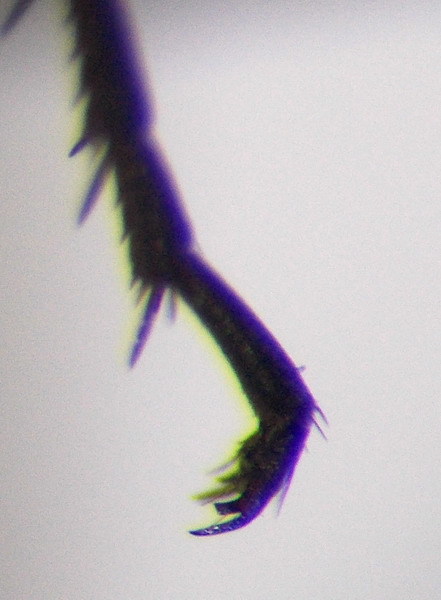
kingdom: Animalia
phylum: Arthropoda
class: Insecta
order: Hymenoptera
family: Pompilidae
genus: Telostegus
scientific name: Telostegus inermis
